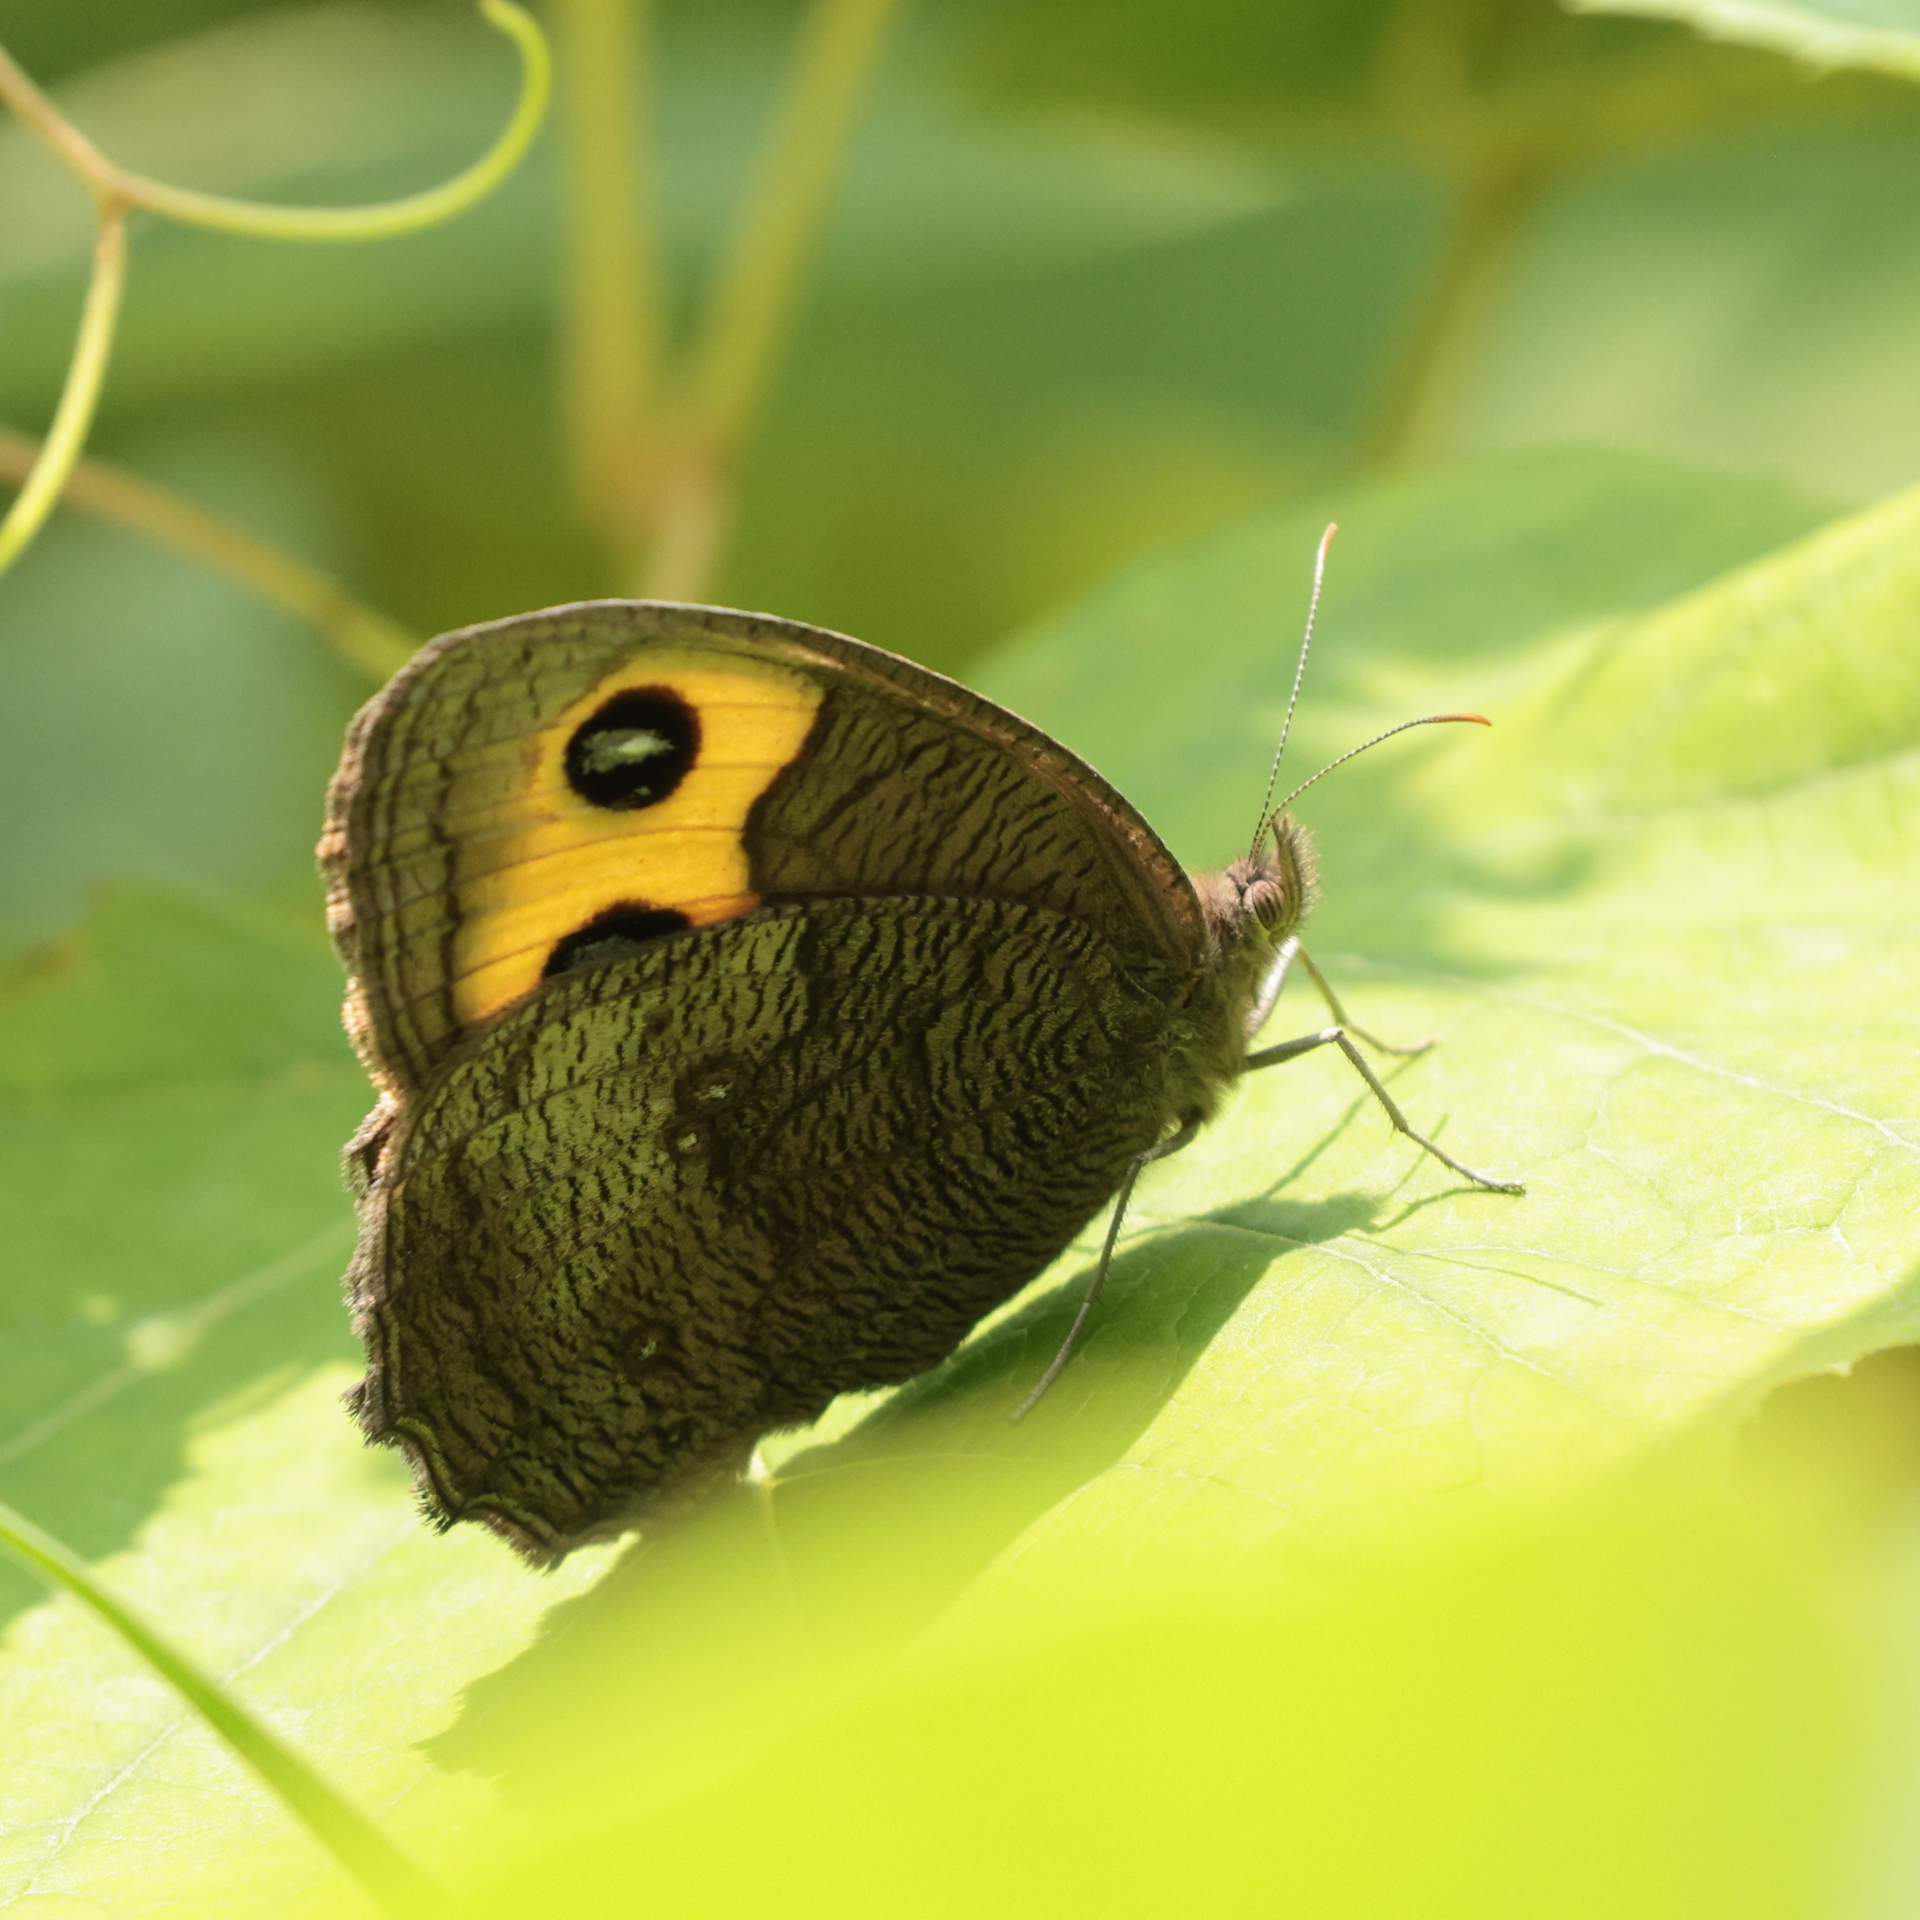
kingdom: Animalia
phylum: Arthropoda
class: Insecta
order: Lepidoptera
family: Nymphalidae
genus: Cercyonis
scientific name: Cercyonis pegala
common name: Common wood-nymph
